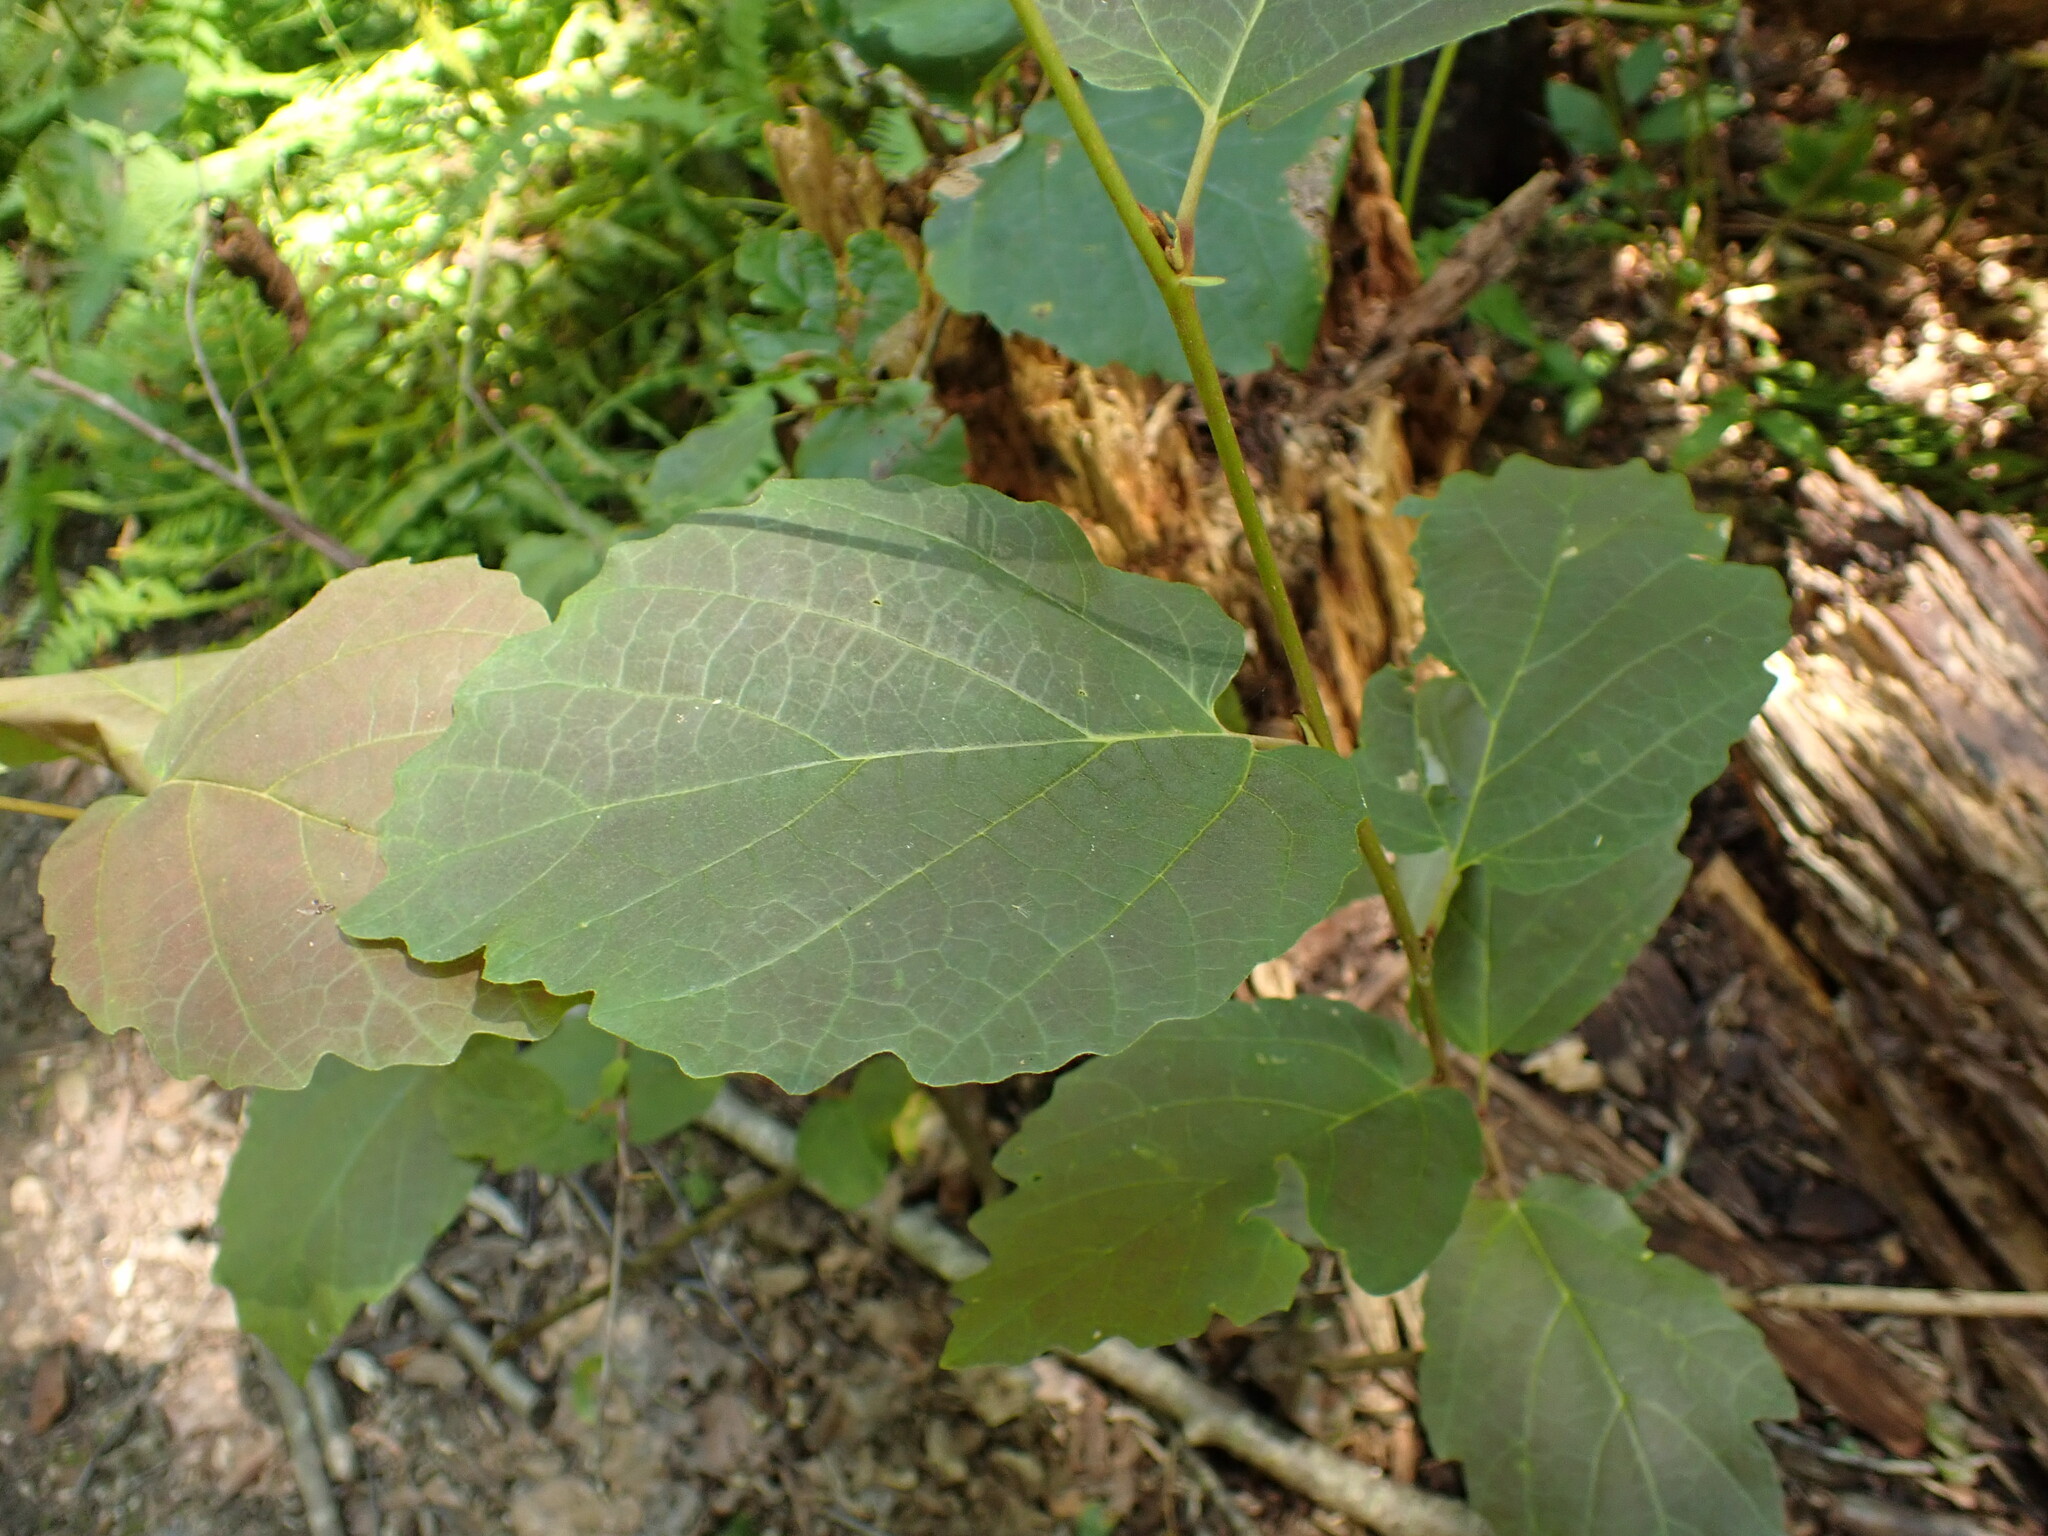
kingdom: Plantae
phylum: Tracheophyta
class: Magnoliopsida
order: Saxifragales
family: Hamamelidaceae
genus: Hamamelis
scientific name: Hamamelis virginiana
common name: Witch-hazel
